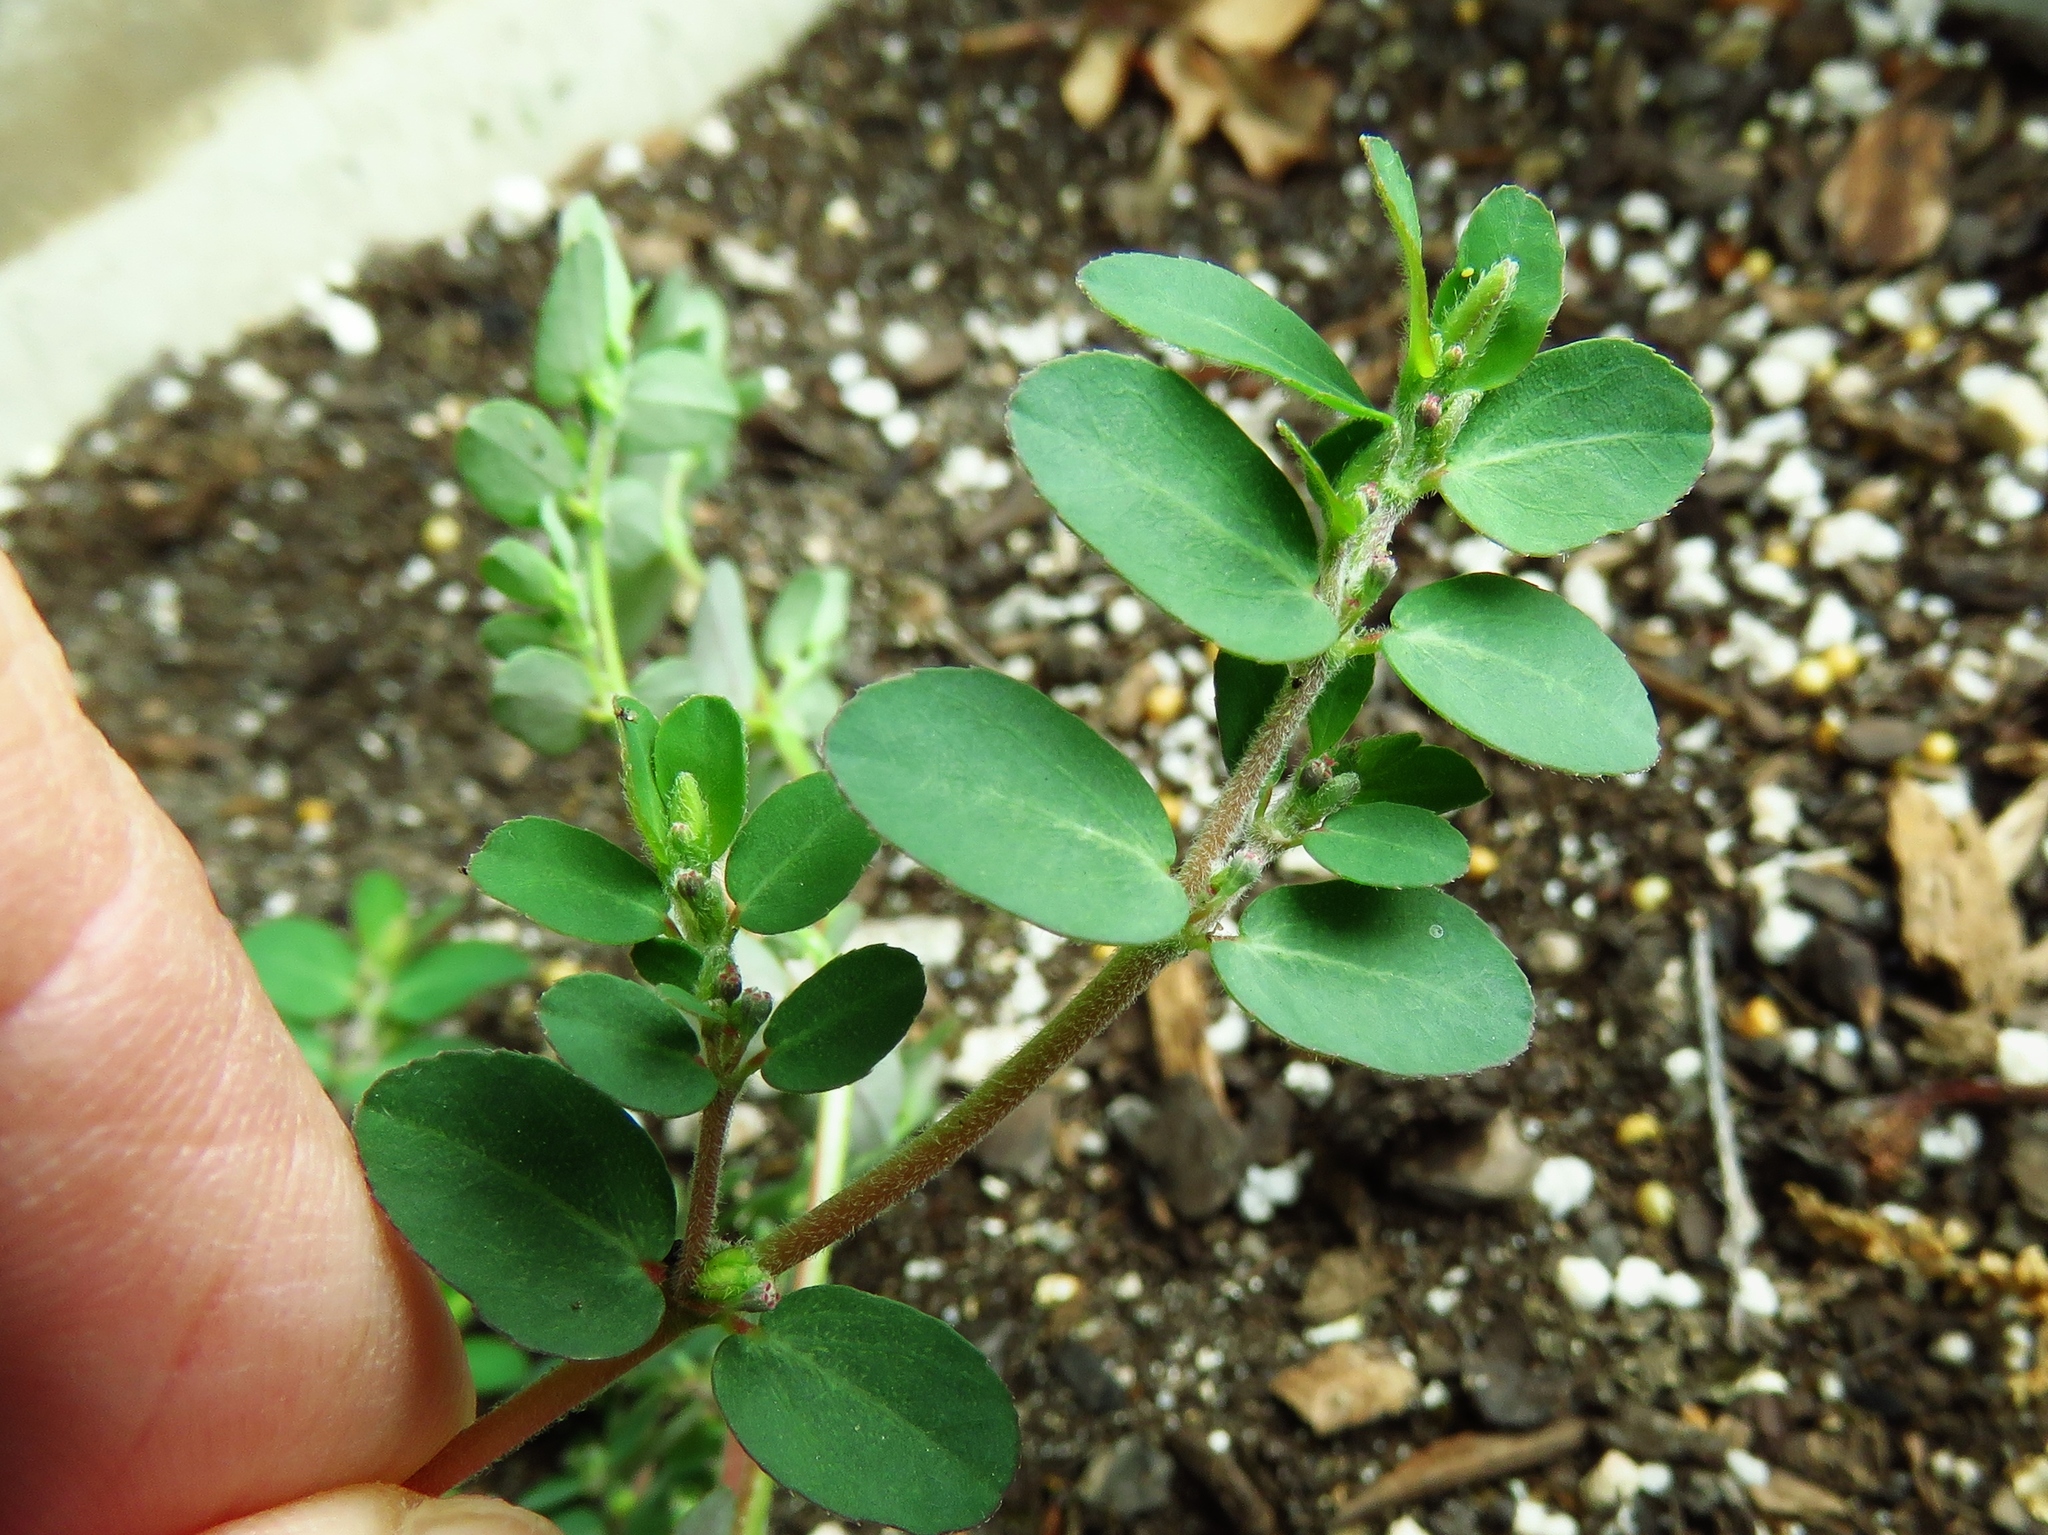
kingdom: Plantae
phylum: Tracheophyta
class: Magnoliopsida
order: Malpighiales
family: Euphorbiaceae
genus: Euphorbia
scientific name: Euphorbia prostrata
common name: Prostrate sandmat
